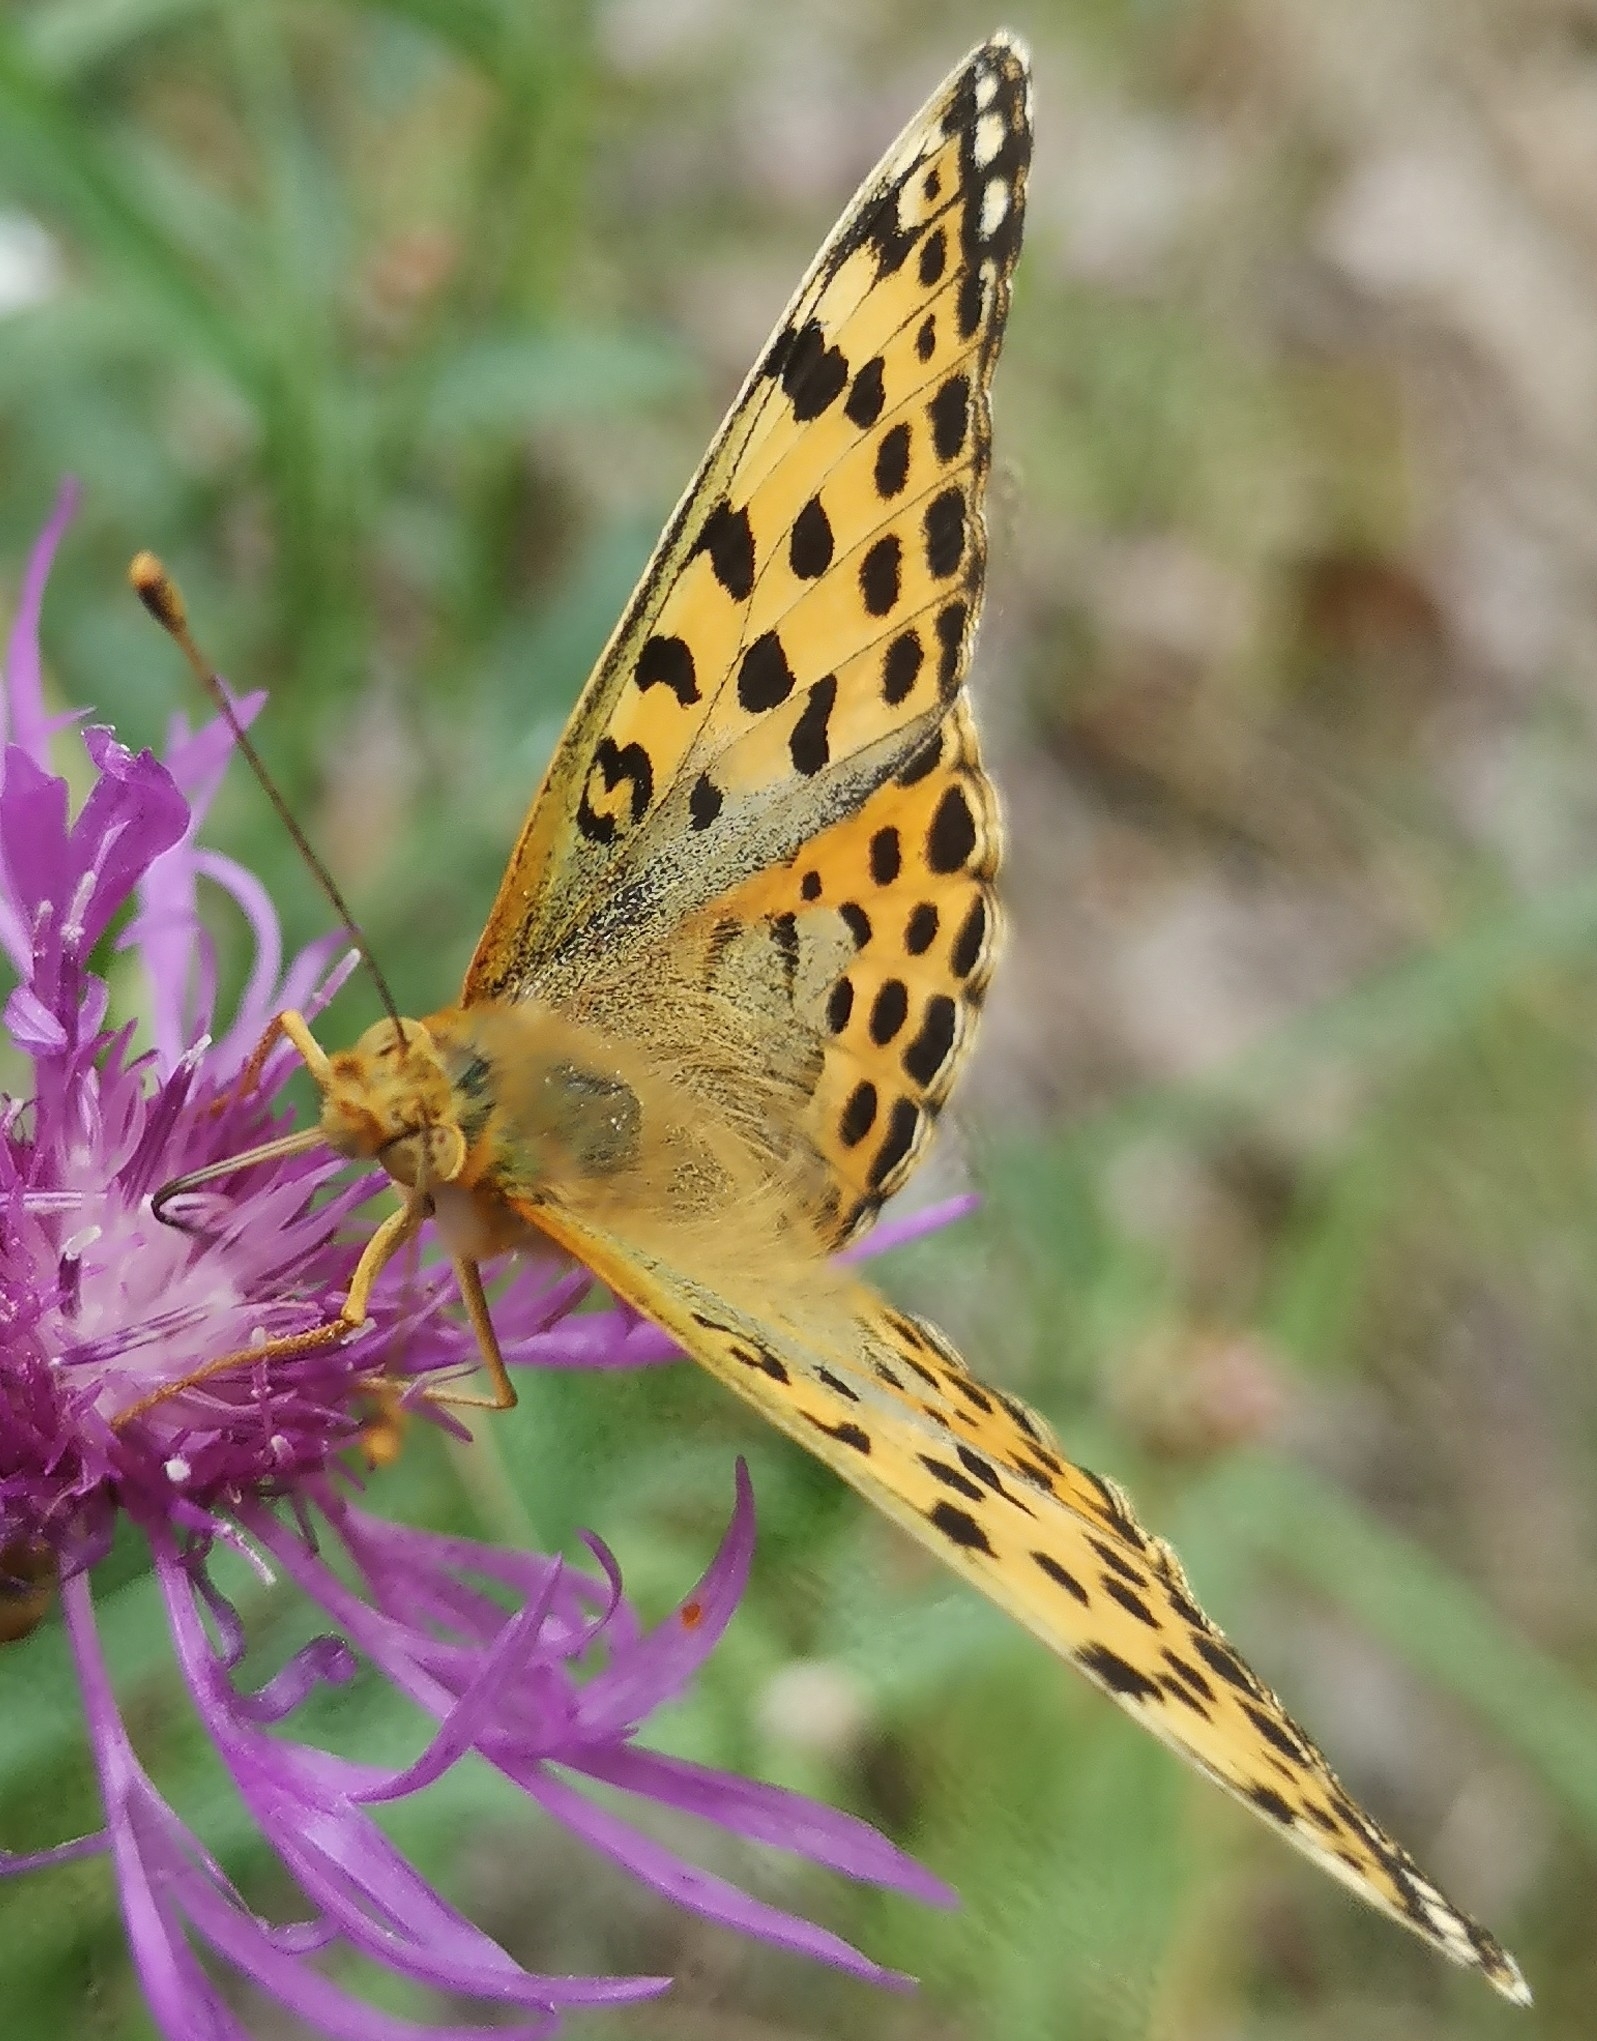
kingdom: Animalia
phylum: Arthropoda
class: Insecta
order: Lepidoptera
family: Nymphalidae
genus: Issoria
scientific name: Issoria lathonia
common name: Queen of spain fritillary
